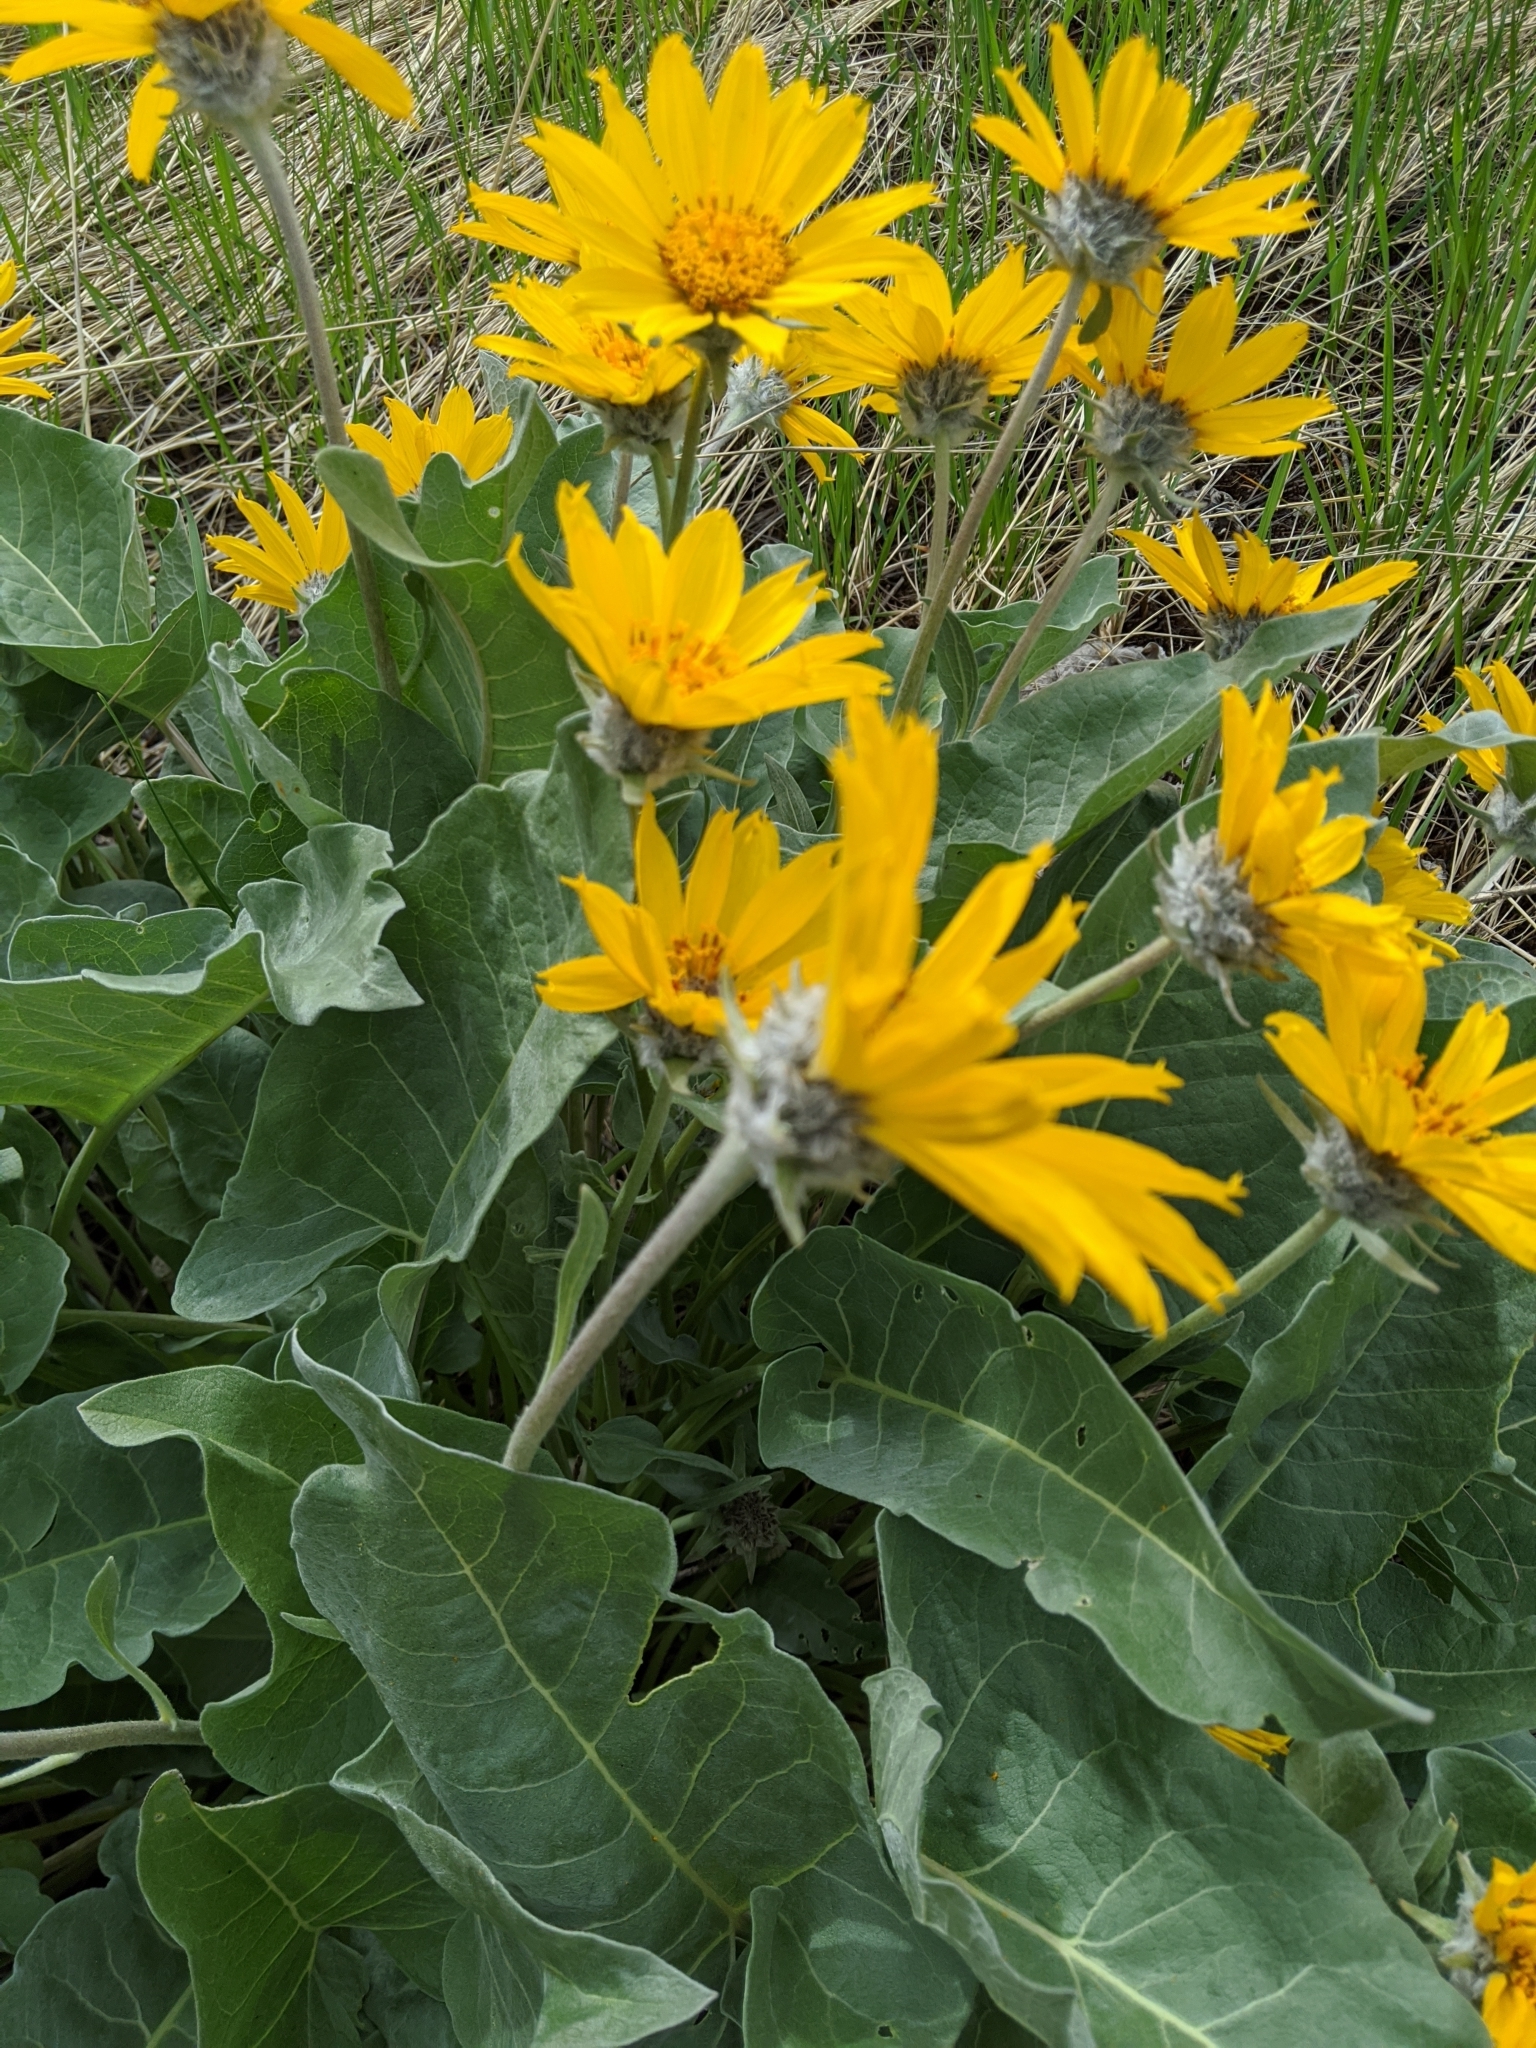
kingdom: Plantae
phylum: Tracheophyta
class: Magnoliopsida
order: Asterales
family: Asteraceae
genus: Wyethia
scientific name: Wyethia sagittata
